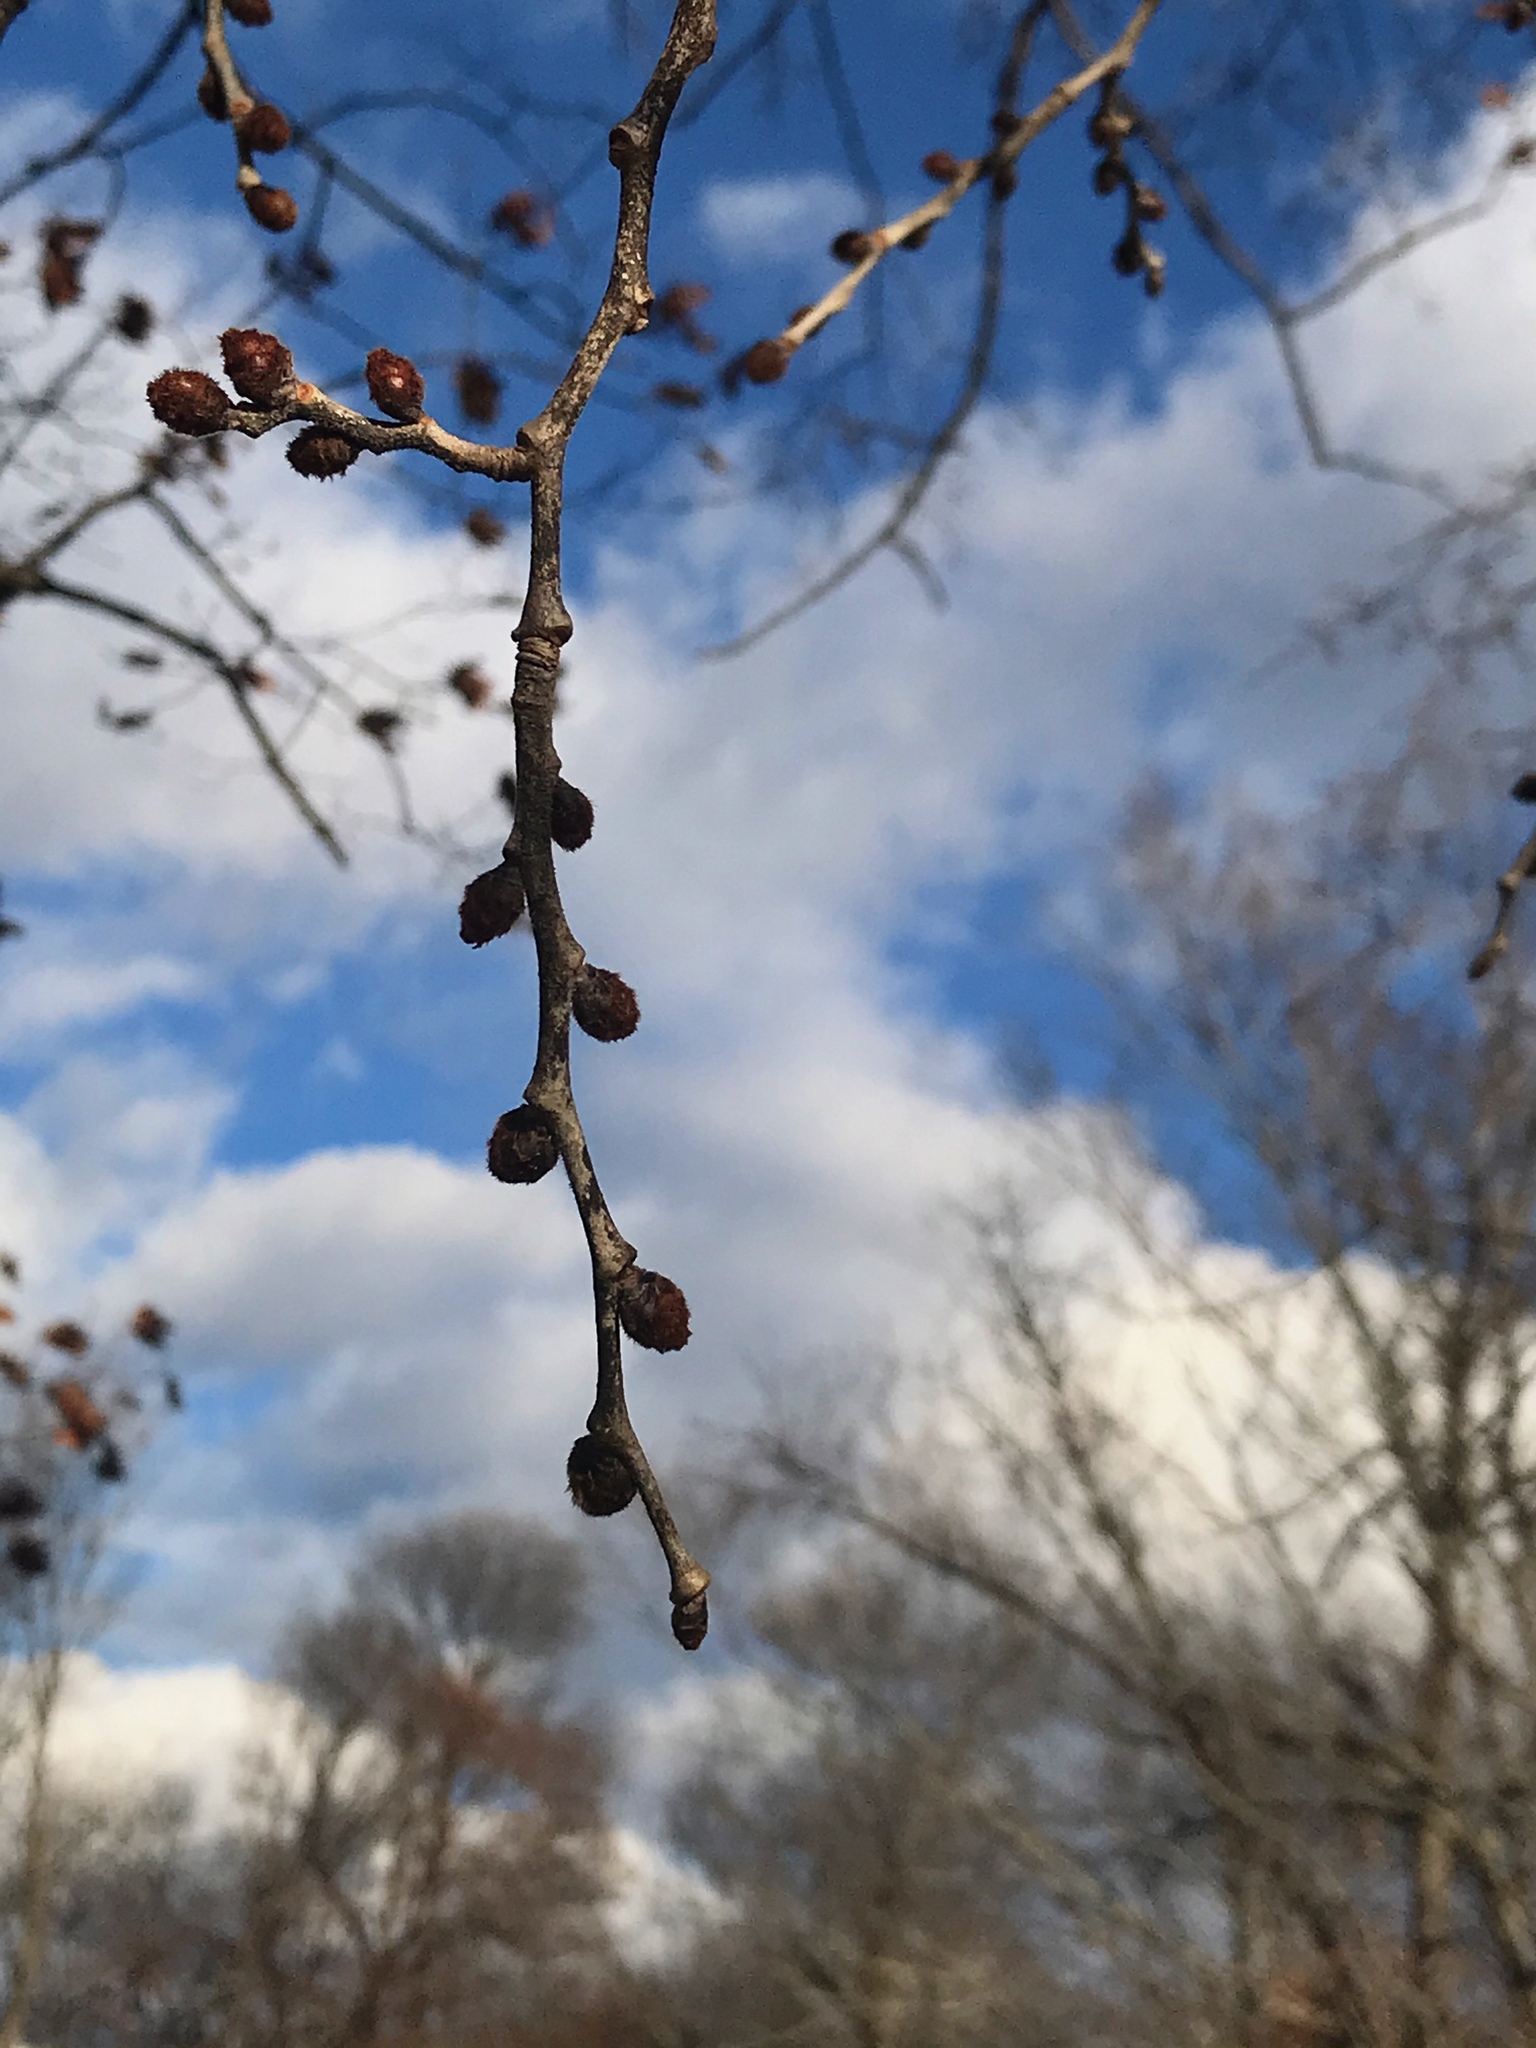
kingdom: Plantae
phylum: Tracheophyta
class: Magnoliopsida
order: Rosales
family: Ulmaceae
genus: Ulmus
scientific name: Ulmus rubra
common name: Slippery elm
